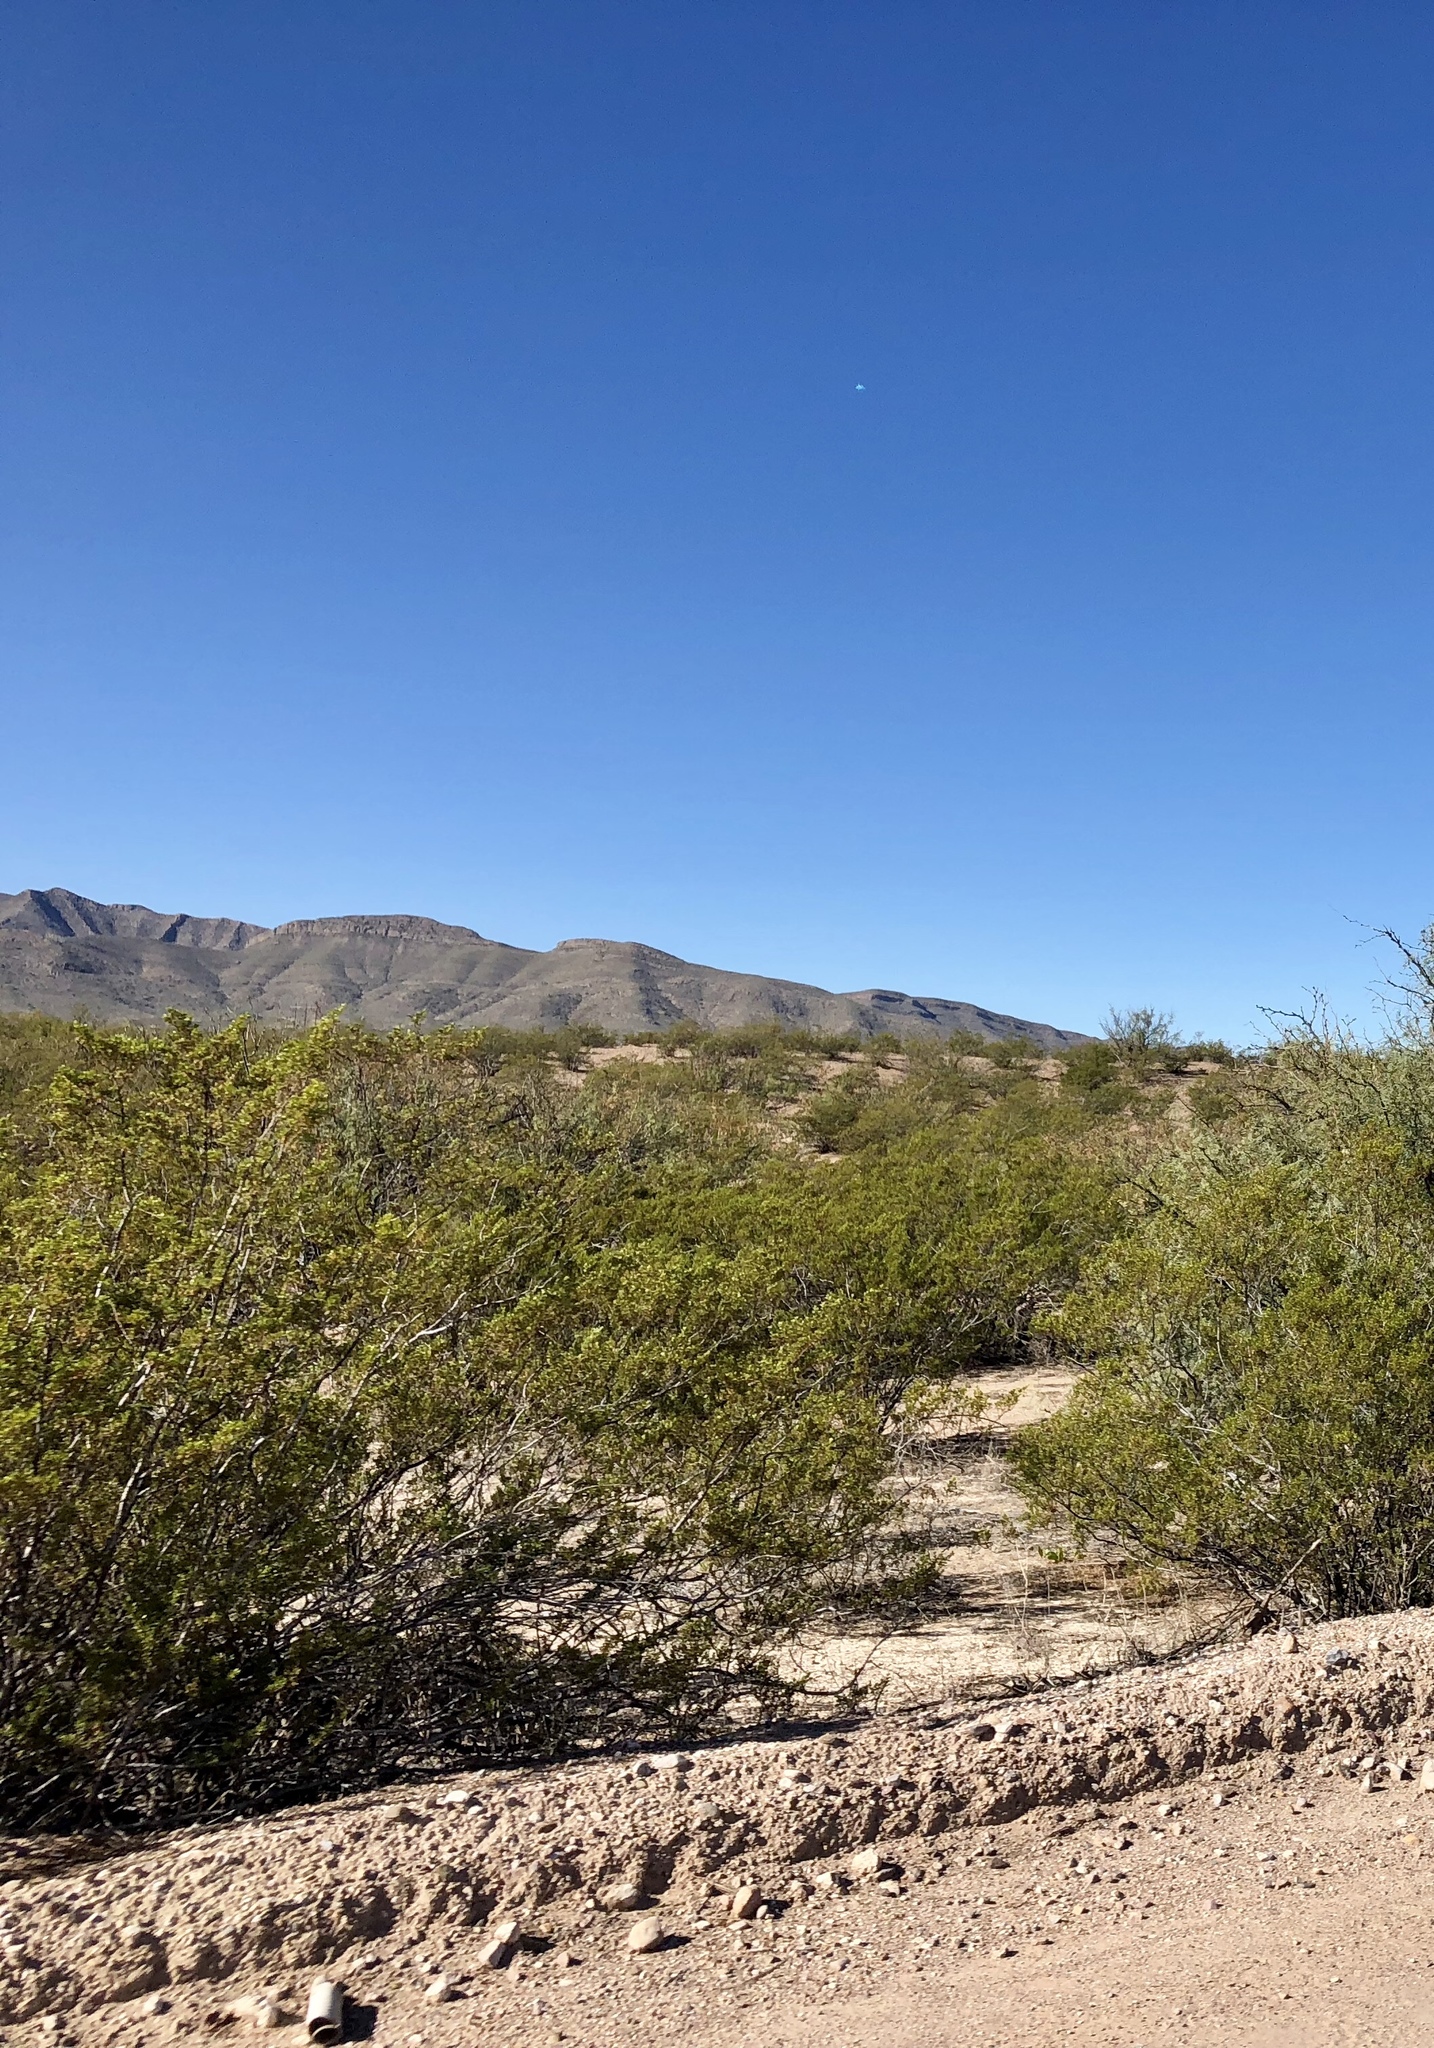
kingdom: Plantae
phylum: Tracheophyta
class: Magnoliopsida
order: Zygophyllales
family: Zygophyllaceae
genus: Larrea
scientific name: Larrea tridentata
